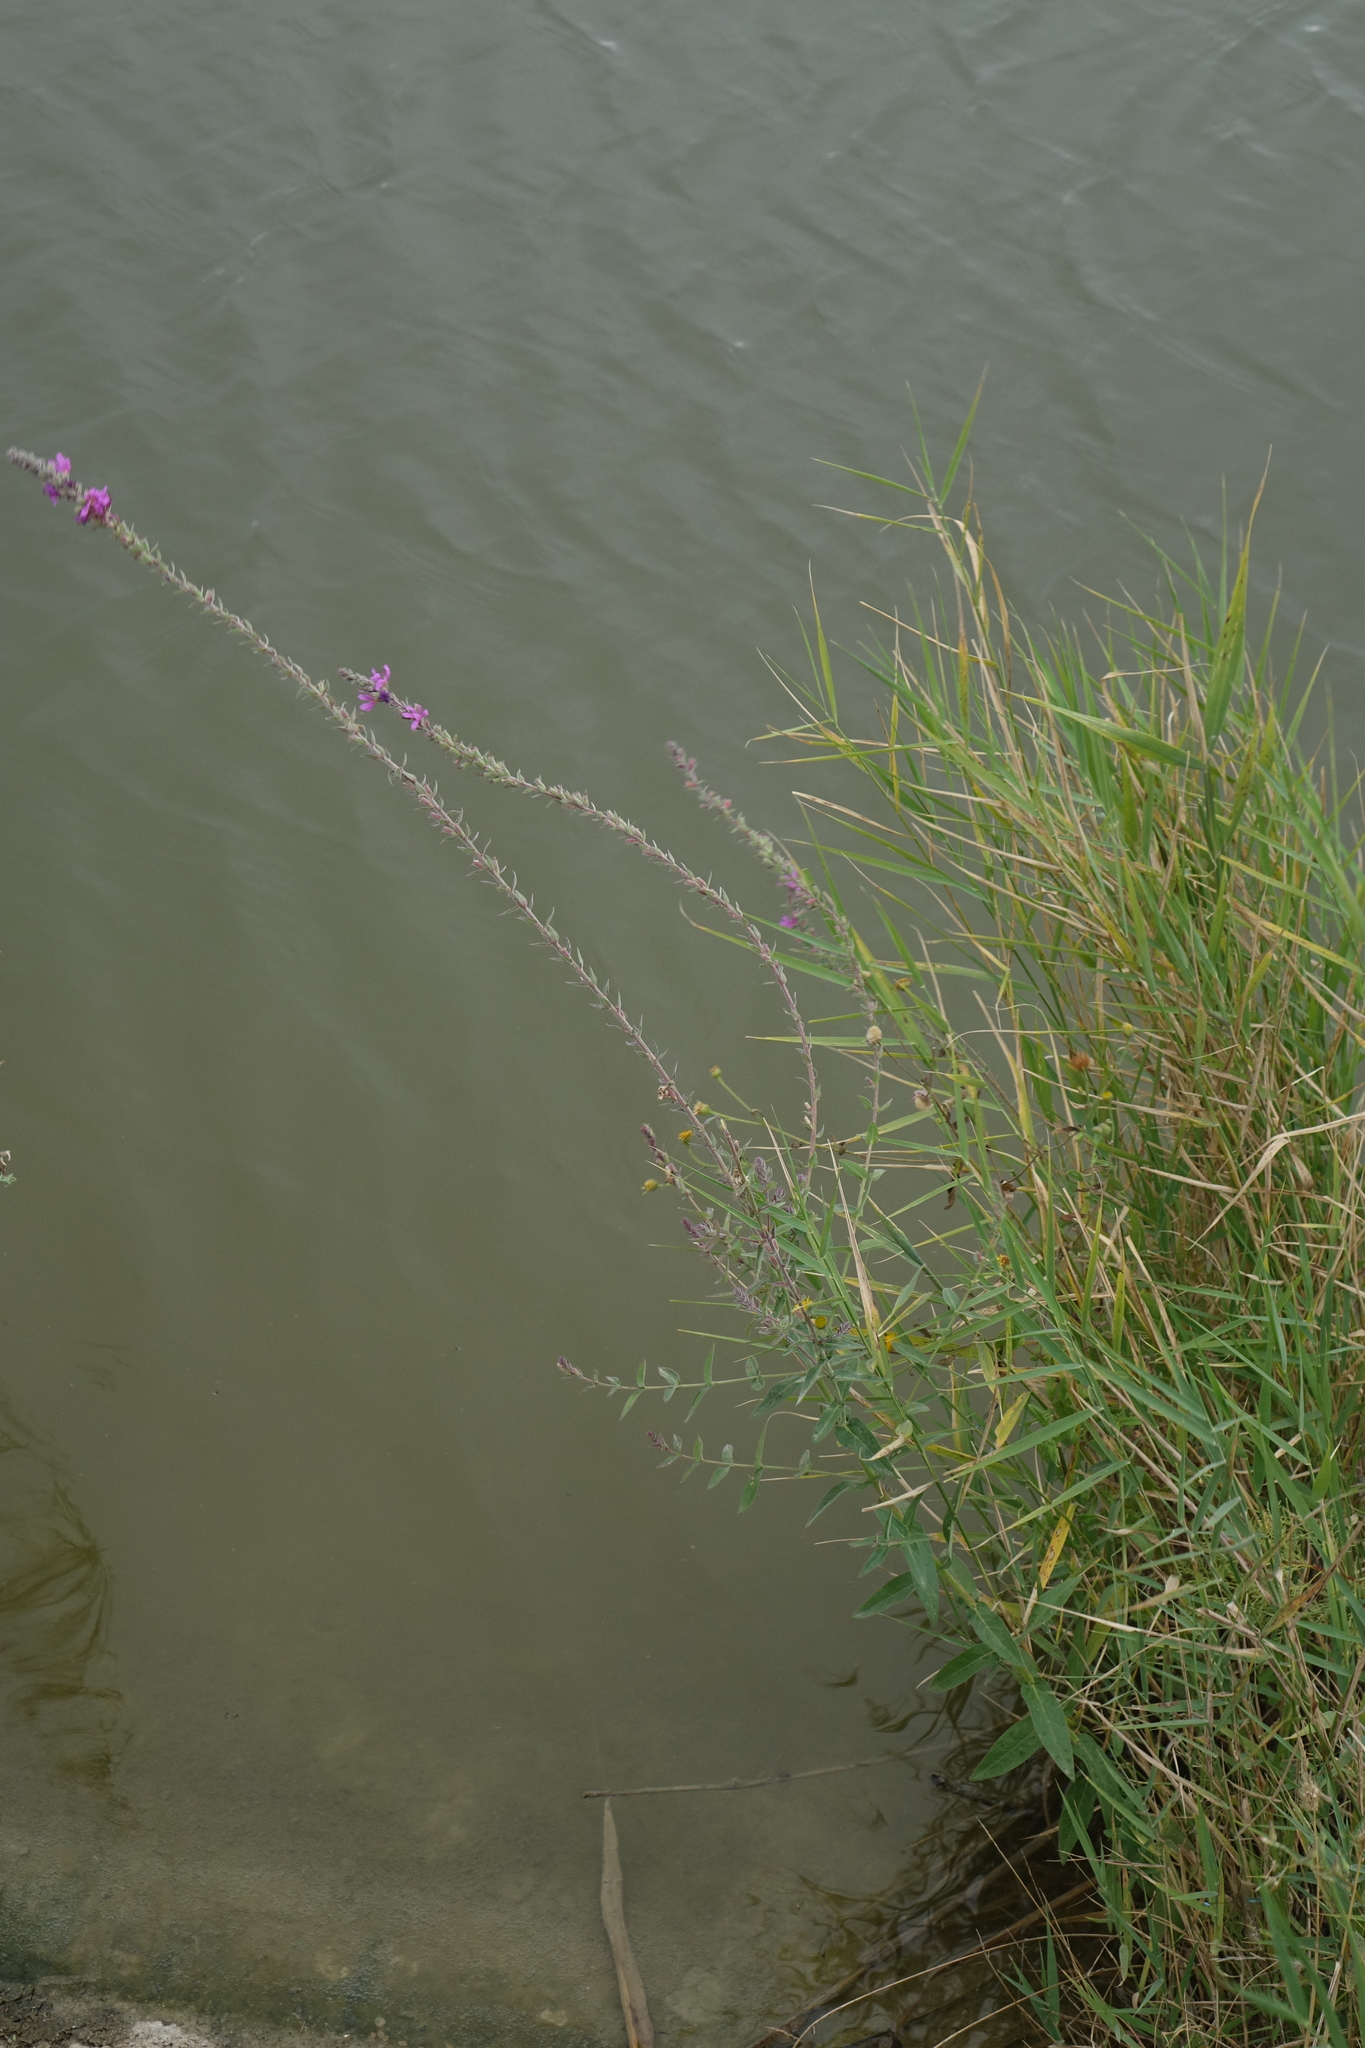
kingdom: Plantae
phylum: Tracheophyta
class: Magnoliopsida
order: Myrtales
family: Lythraceae
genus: Lythrum
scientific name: Lythrum salicaria
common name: Purple loosestrife
